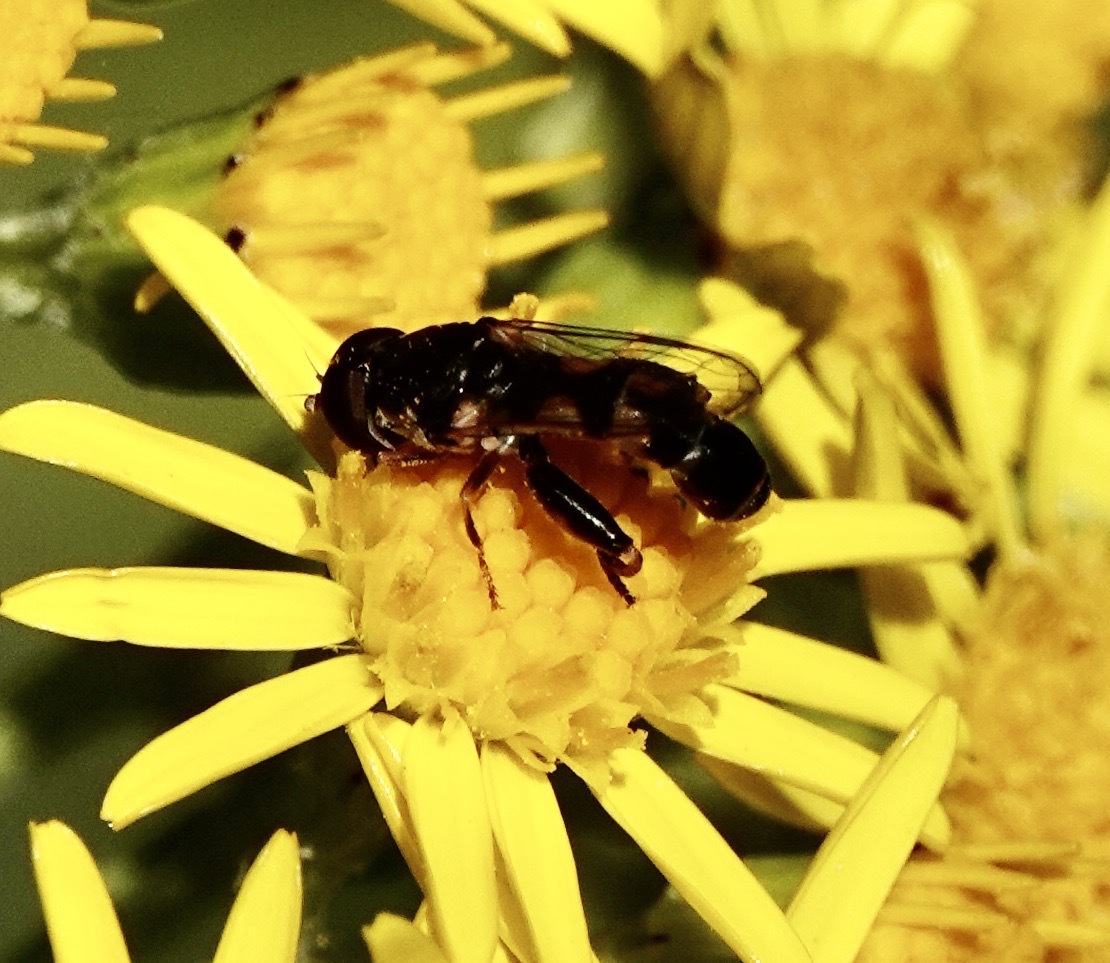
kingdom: Animalia
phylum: Arthropoda
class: Insecta
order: Diptera
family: Syrphidae
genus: Syritta
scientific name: Syritta pipiens
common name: Hover fly
